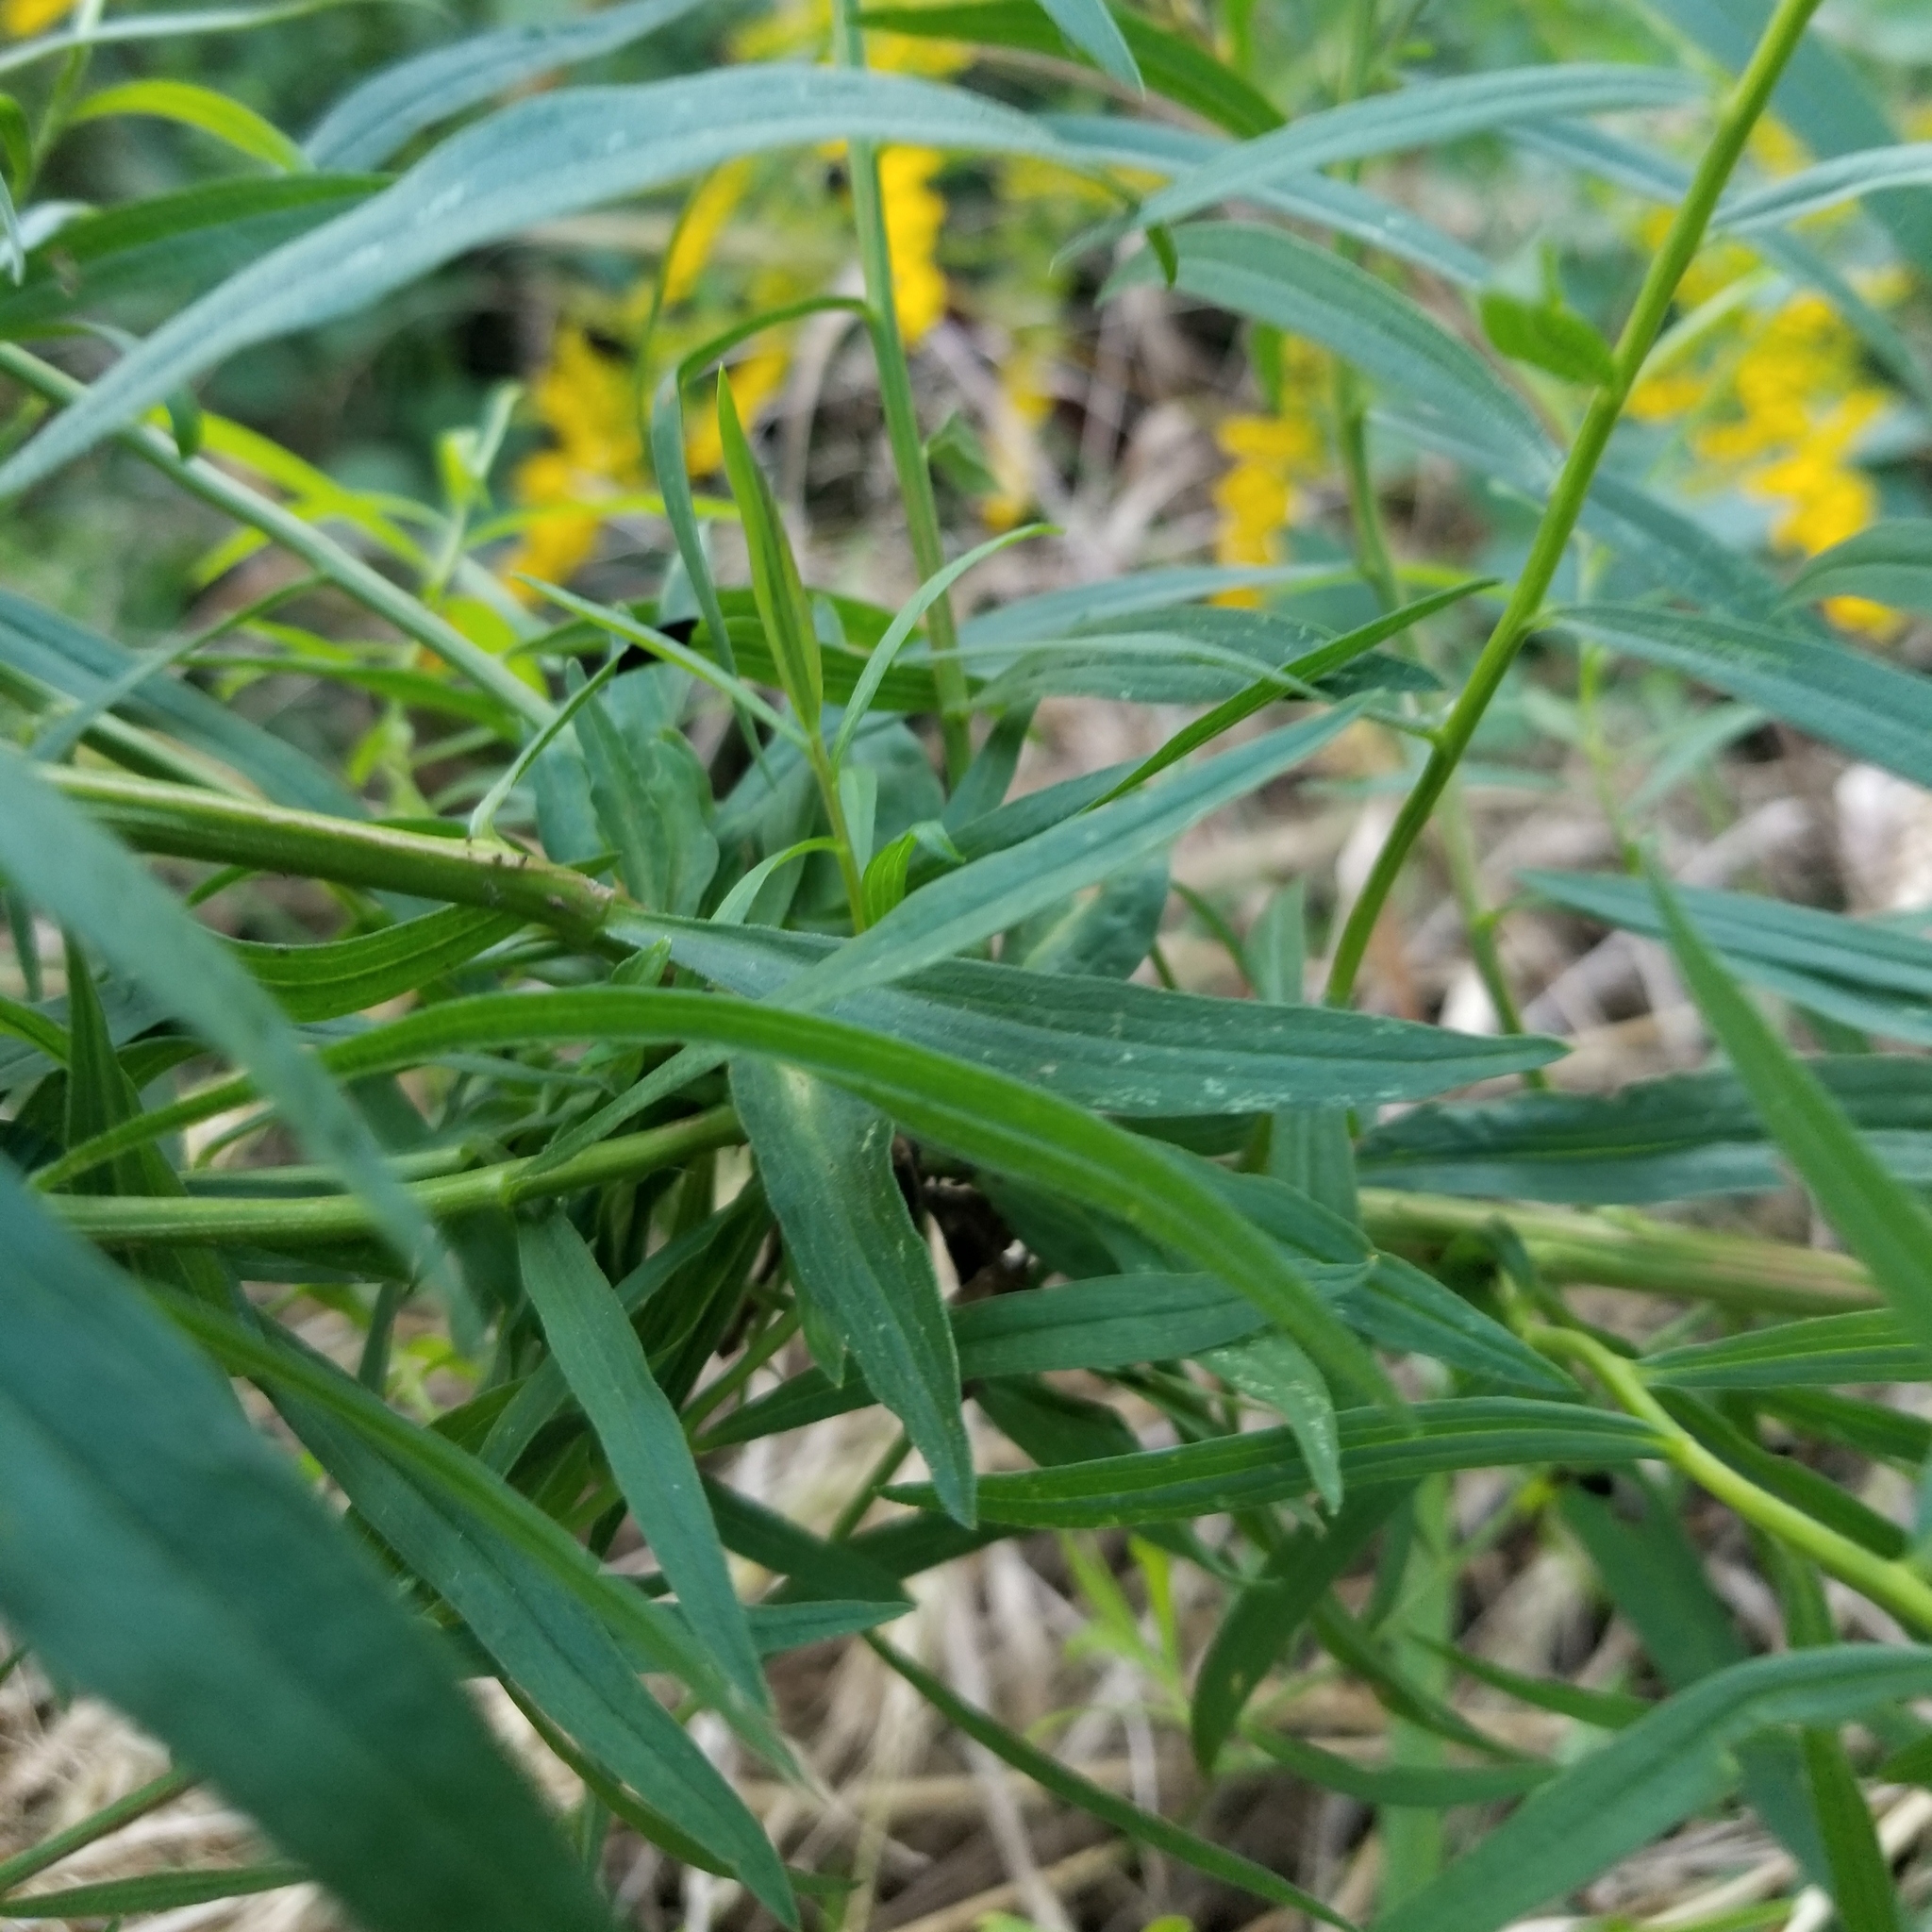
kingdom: Animalia
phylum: Arthropoda
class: Insecta
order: Diptera
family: Cecidomyiidae
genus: Asphondylia
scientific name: Asphondylia pseudorosa
